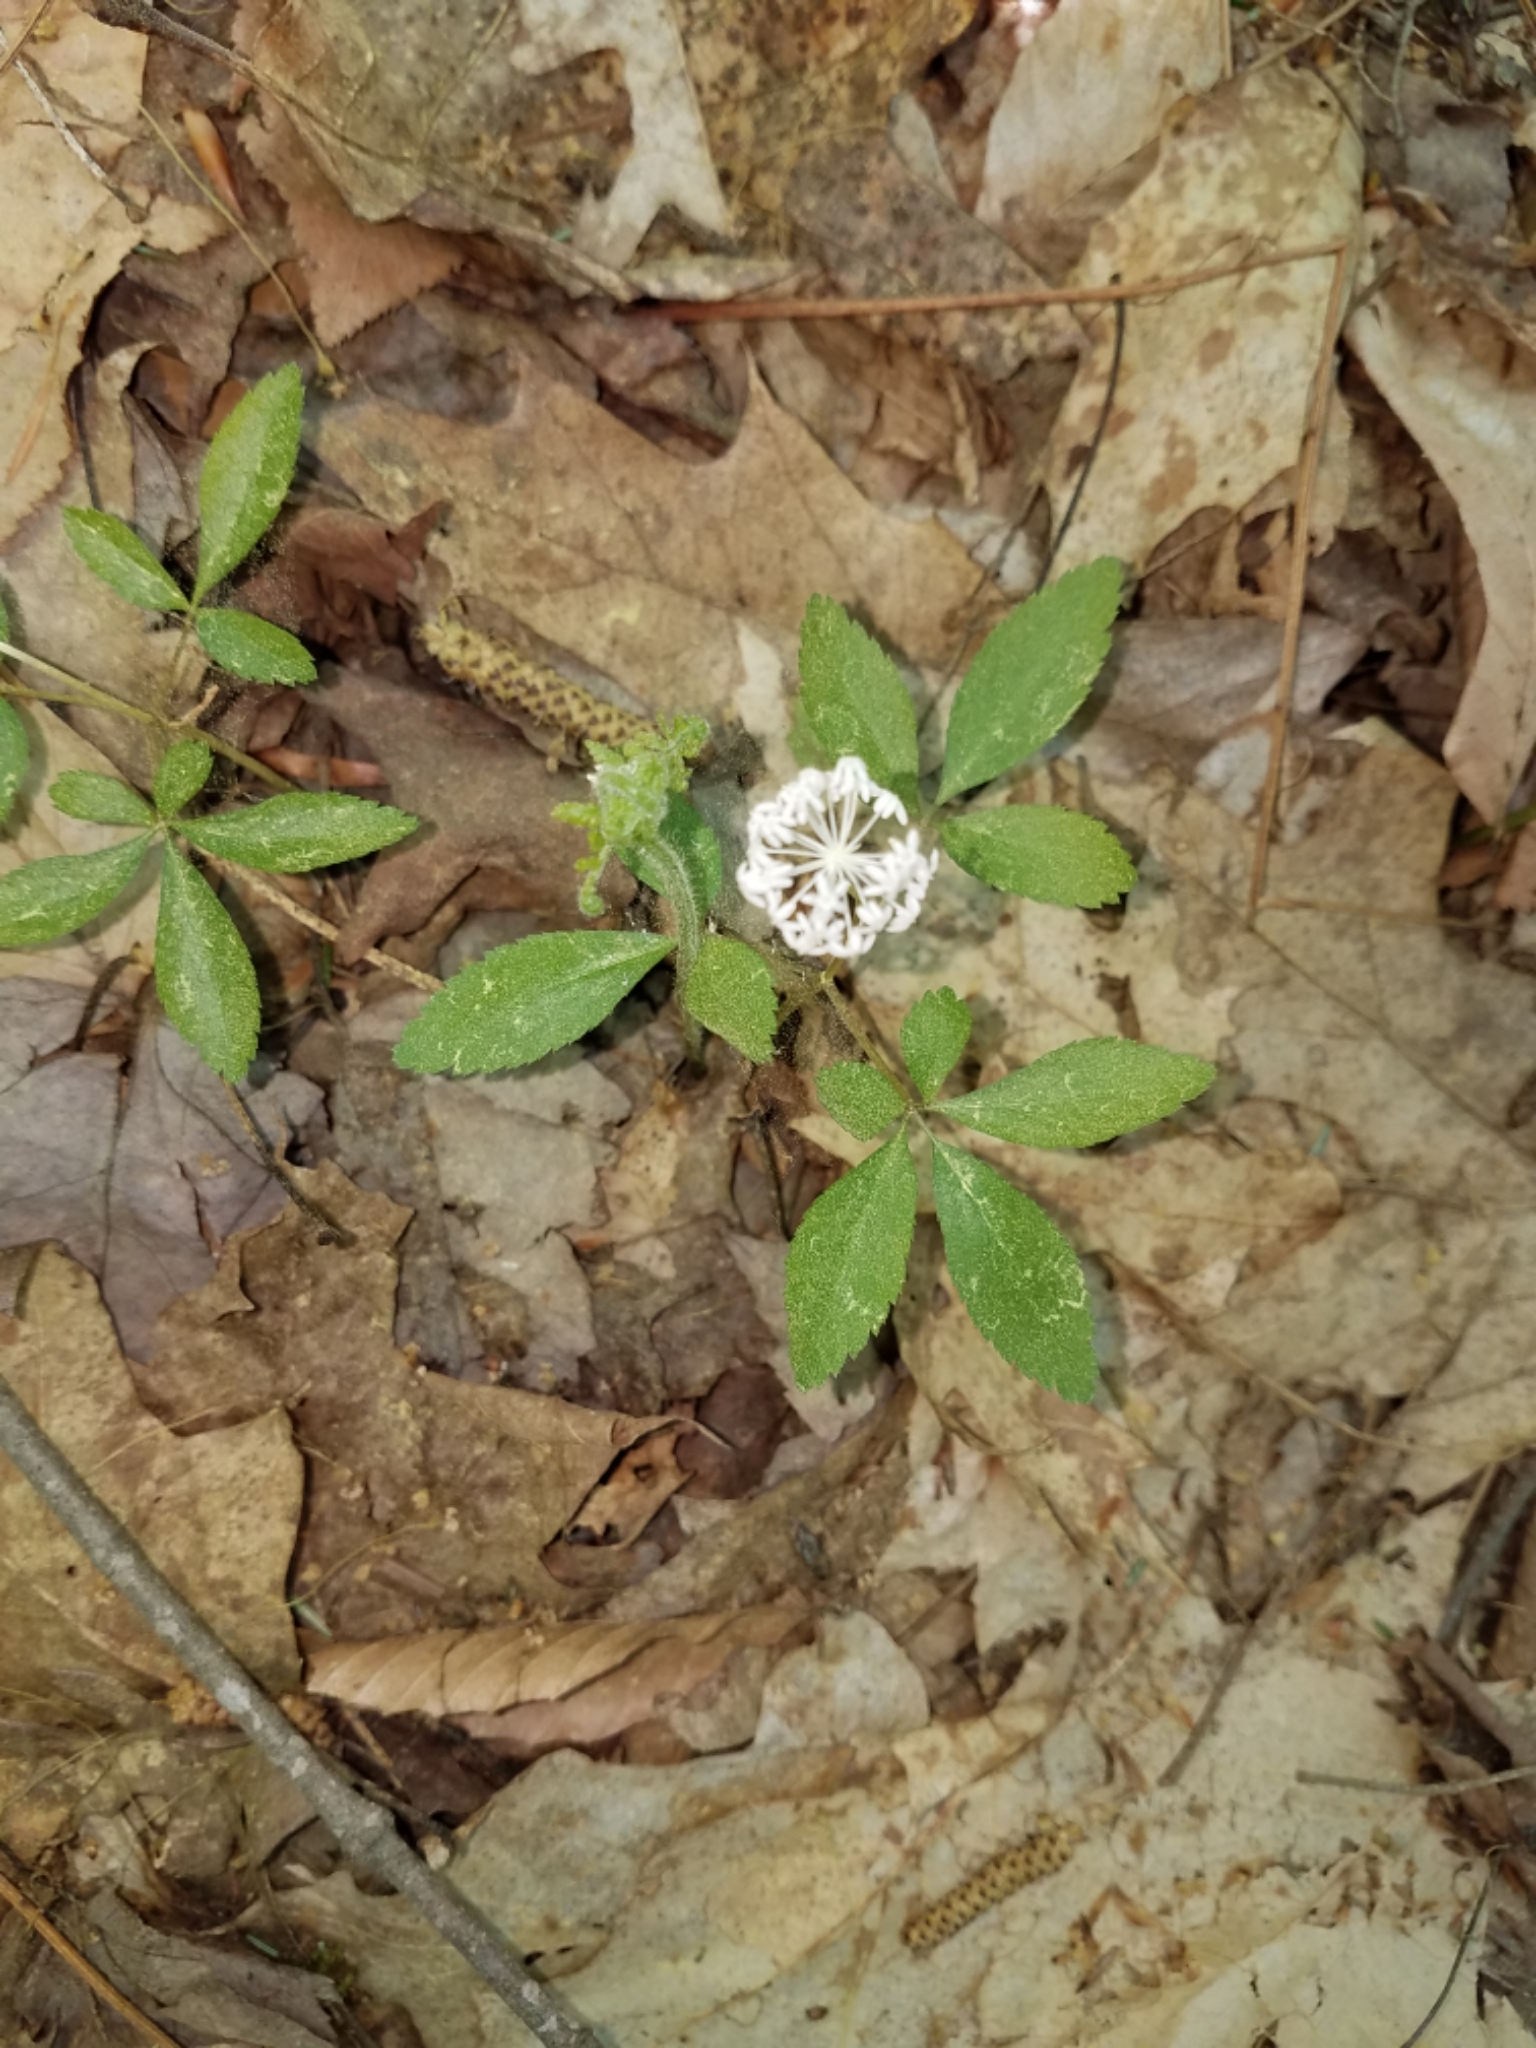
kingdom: Plantae
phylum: Tracheophyta
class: Magnoliopsida
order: Apiales
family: Araliaceae
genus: Panax
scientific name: Panax trifolius
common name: Dwarf ginseng
